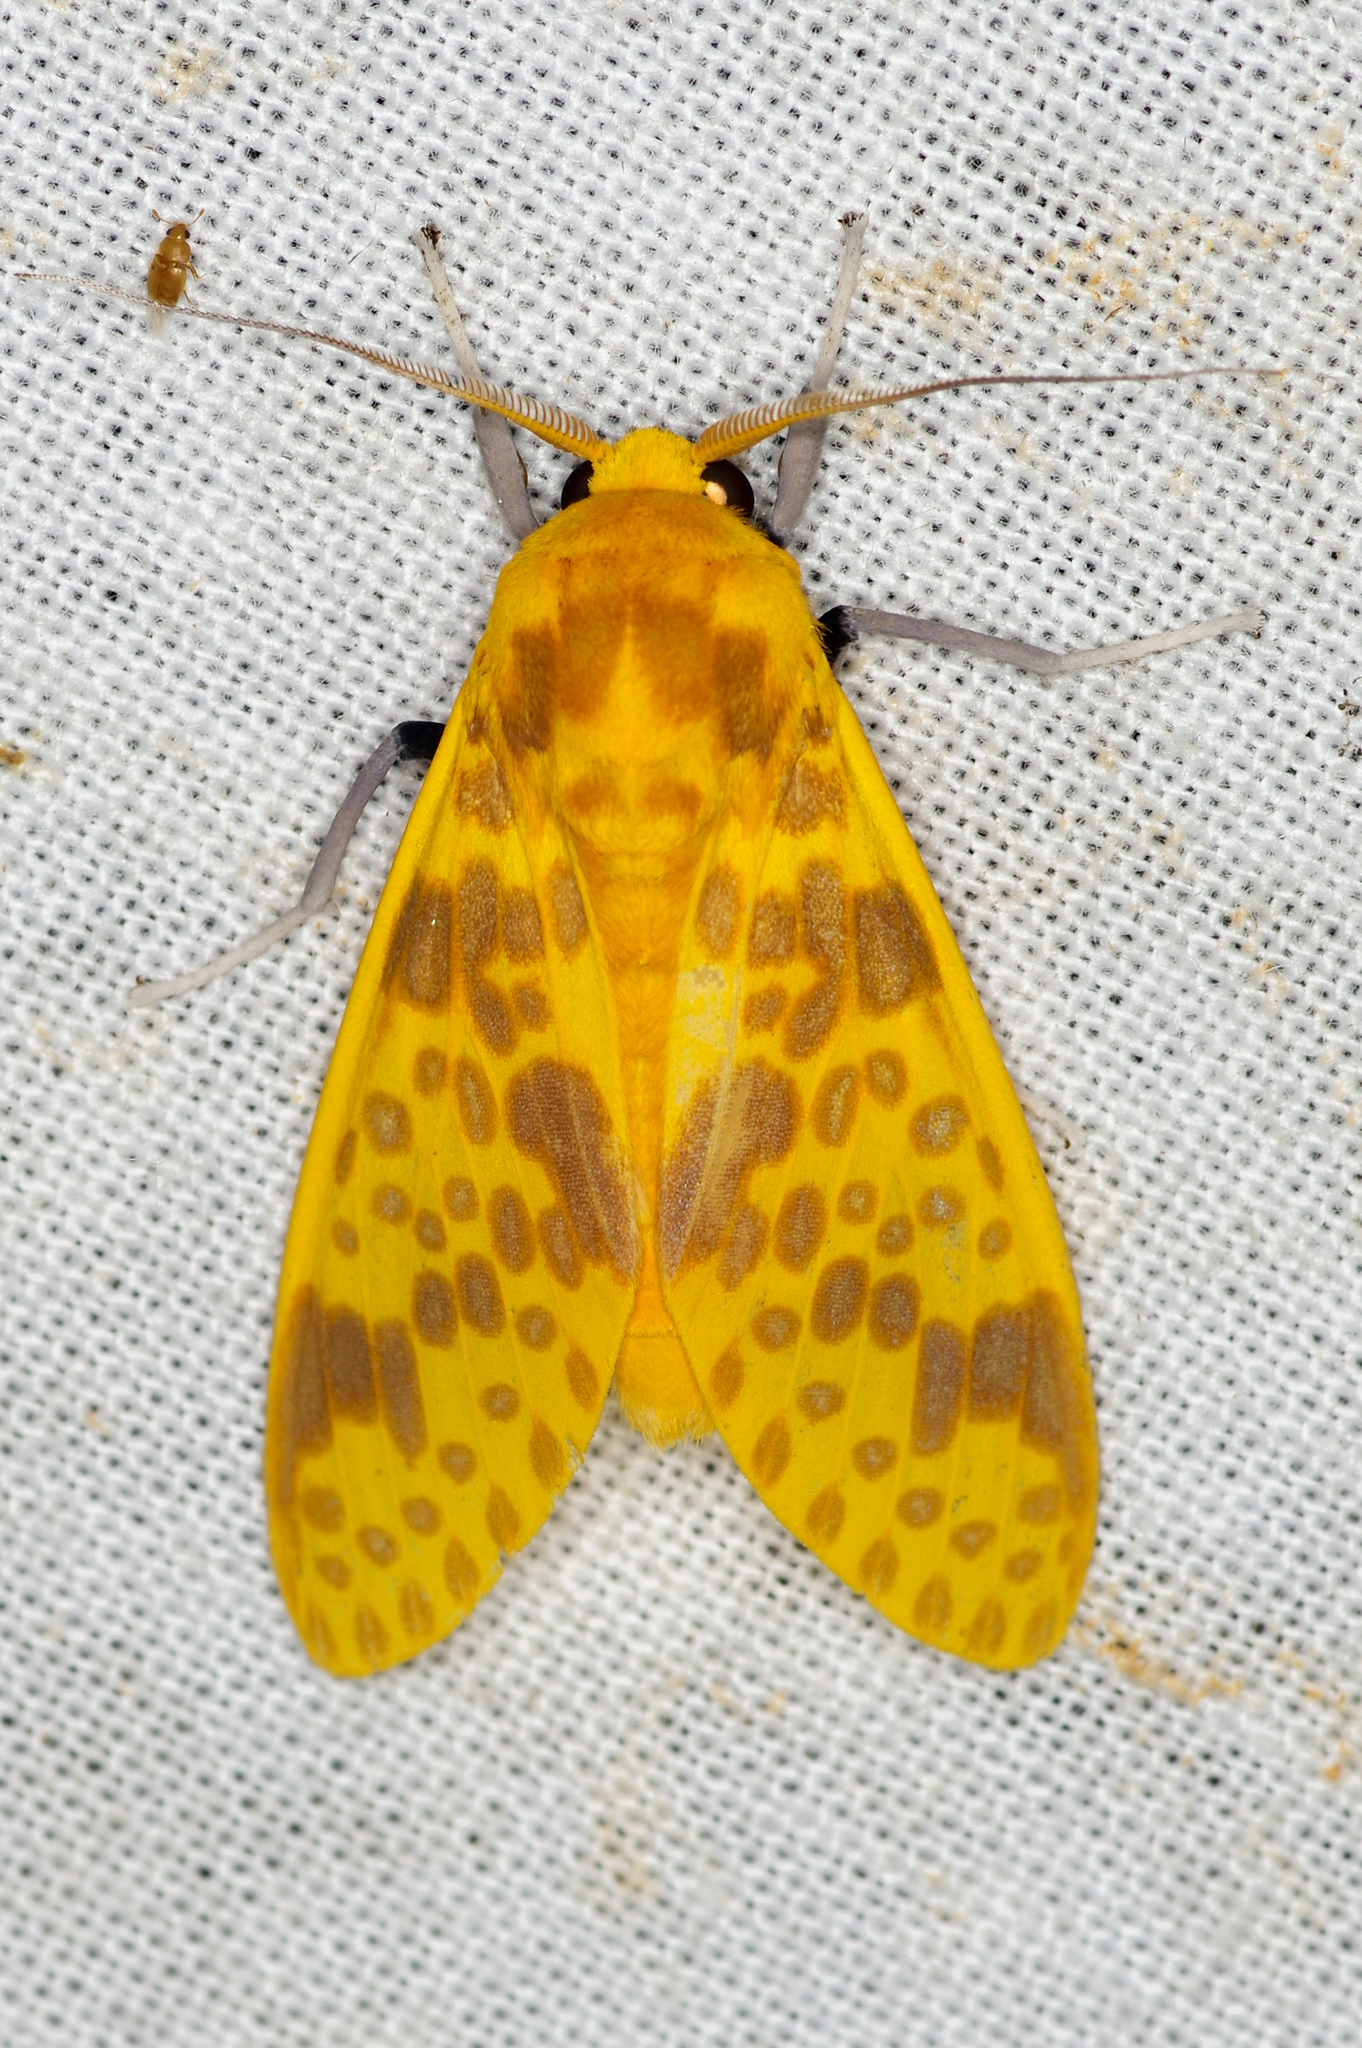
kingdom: Animalia
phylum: Arthropoda
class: Insecta
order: Lepidoptera
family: Erebidae
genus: Symphlebia
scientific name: Symphlebia neja
